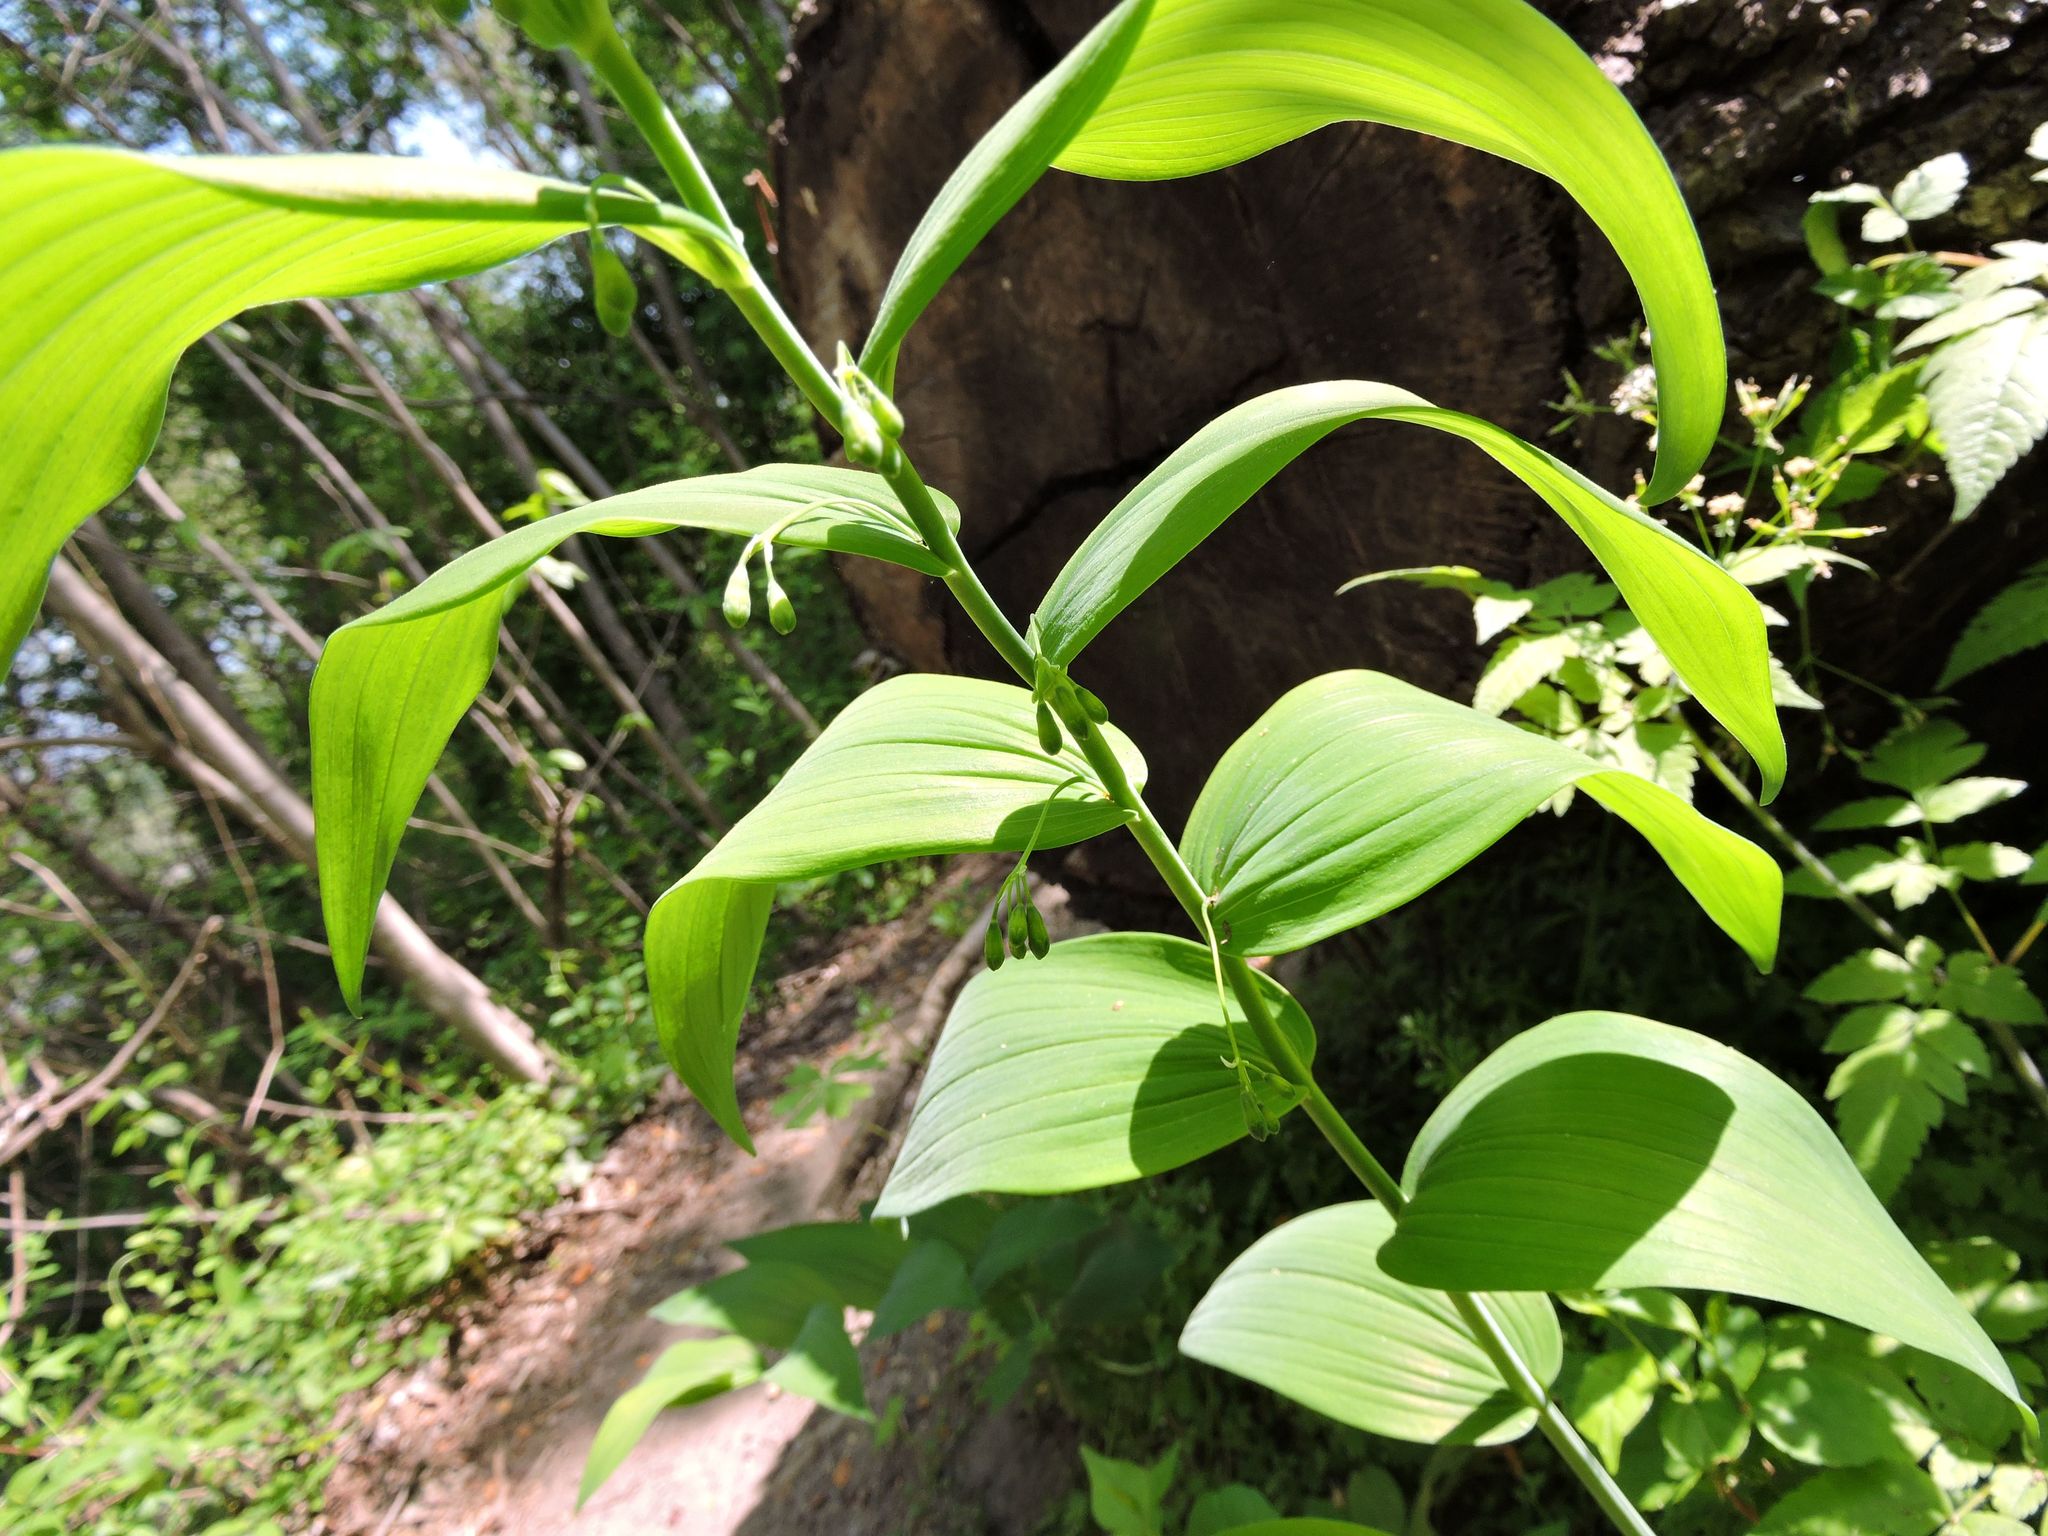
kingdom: Plantae
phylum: Tracheophyta
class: Liliopsida
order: Asparagales
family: Asparagaceae
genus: Polygonatum
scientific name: Polygonatum biflorum
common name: American solomon's-seal
